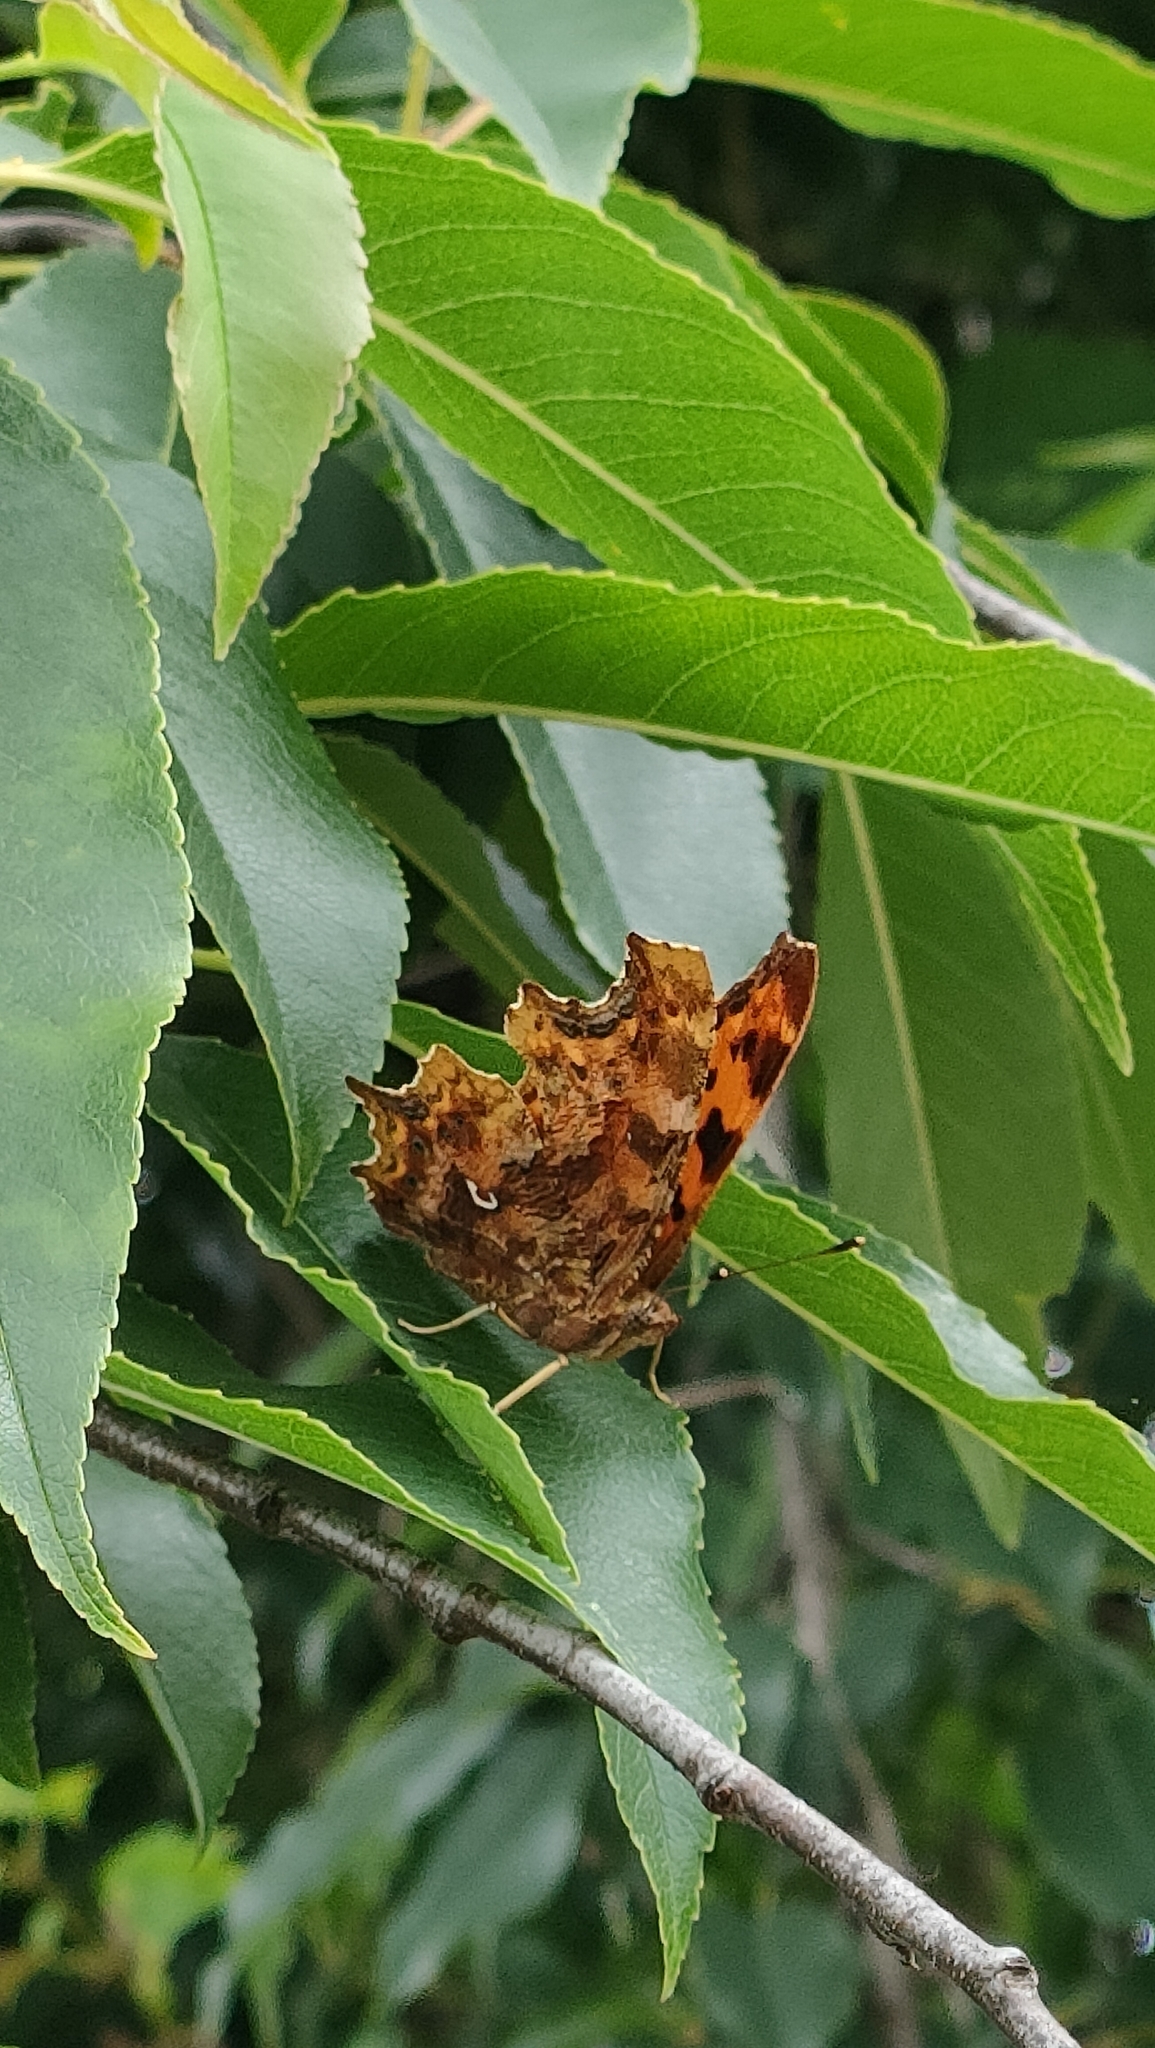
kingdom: Animalia
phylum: Arthropoda
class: Insecta
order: Lepidoptera
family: Nymphalidae
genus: Polygonia
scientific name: Polygonia c-album
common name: Comma
